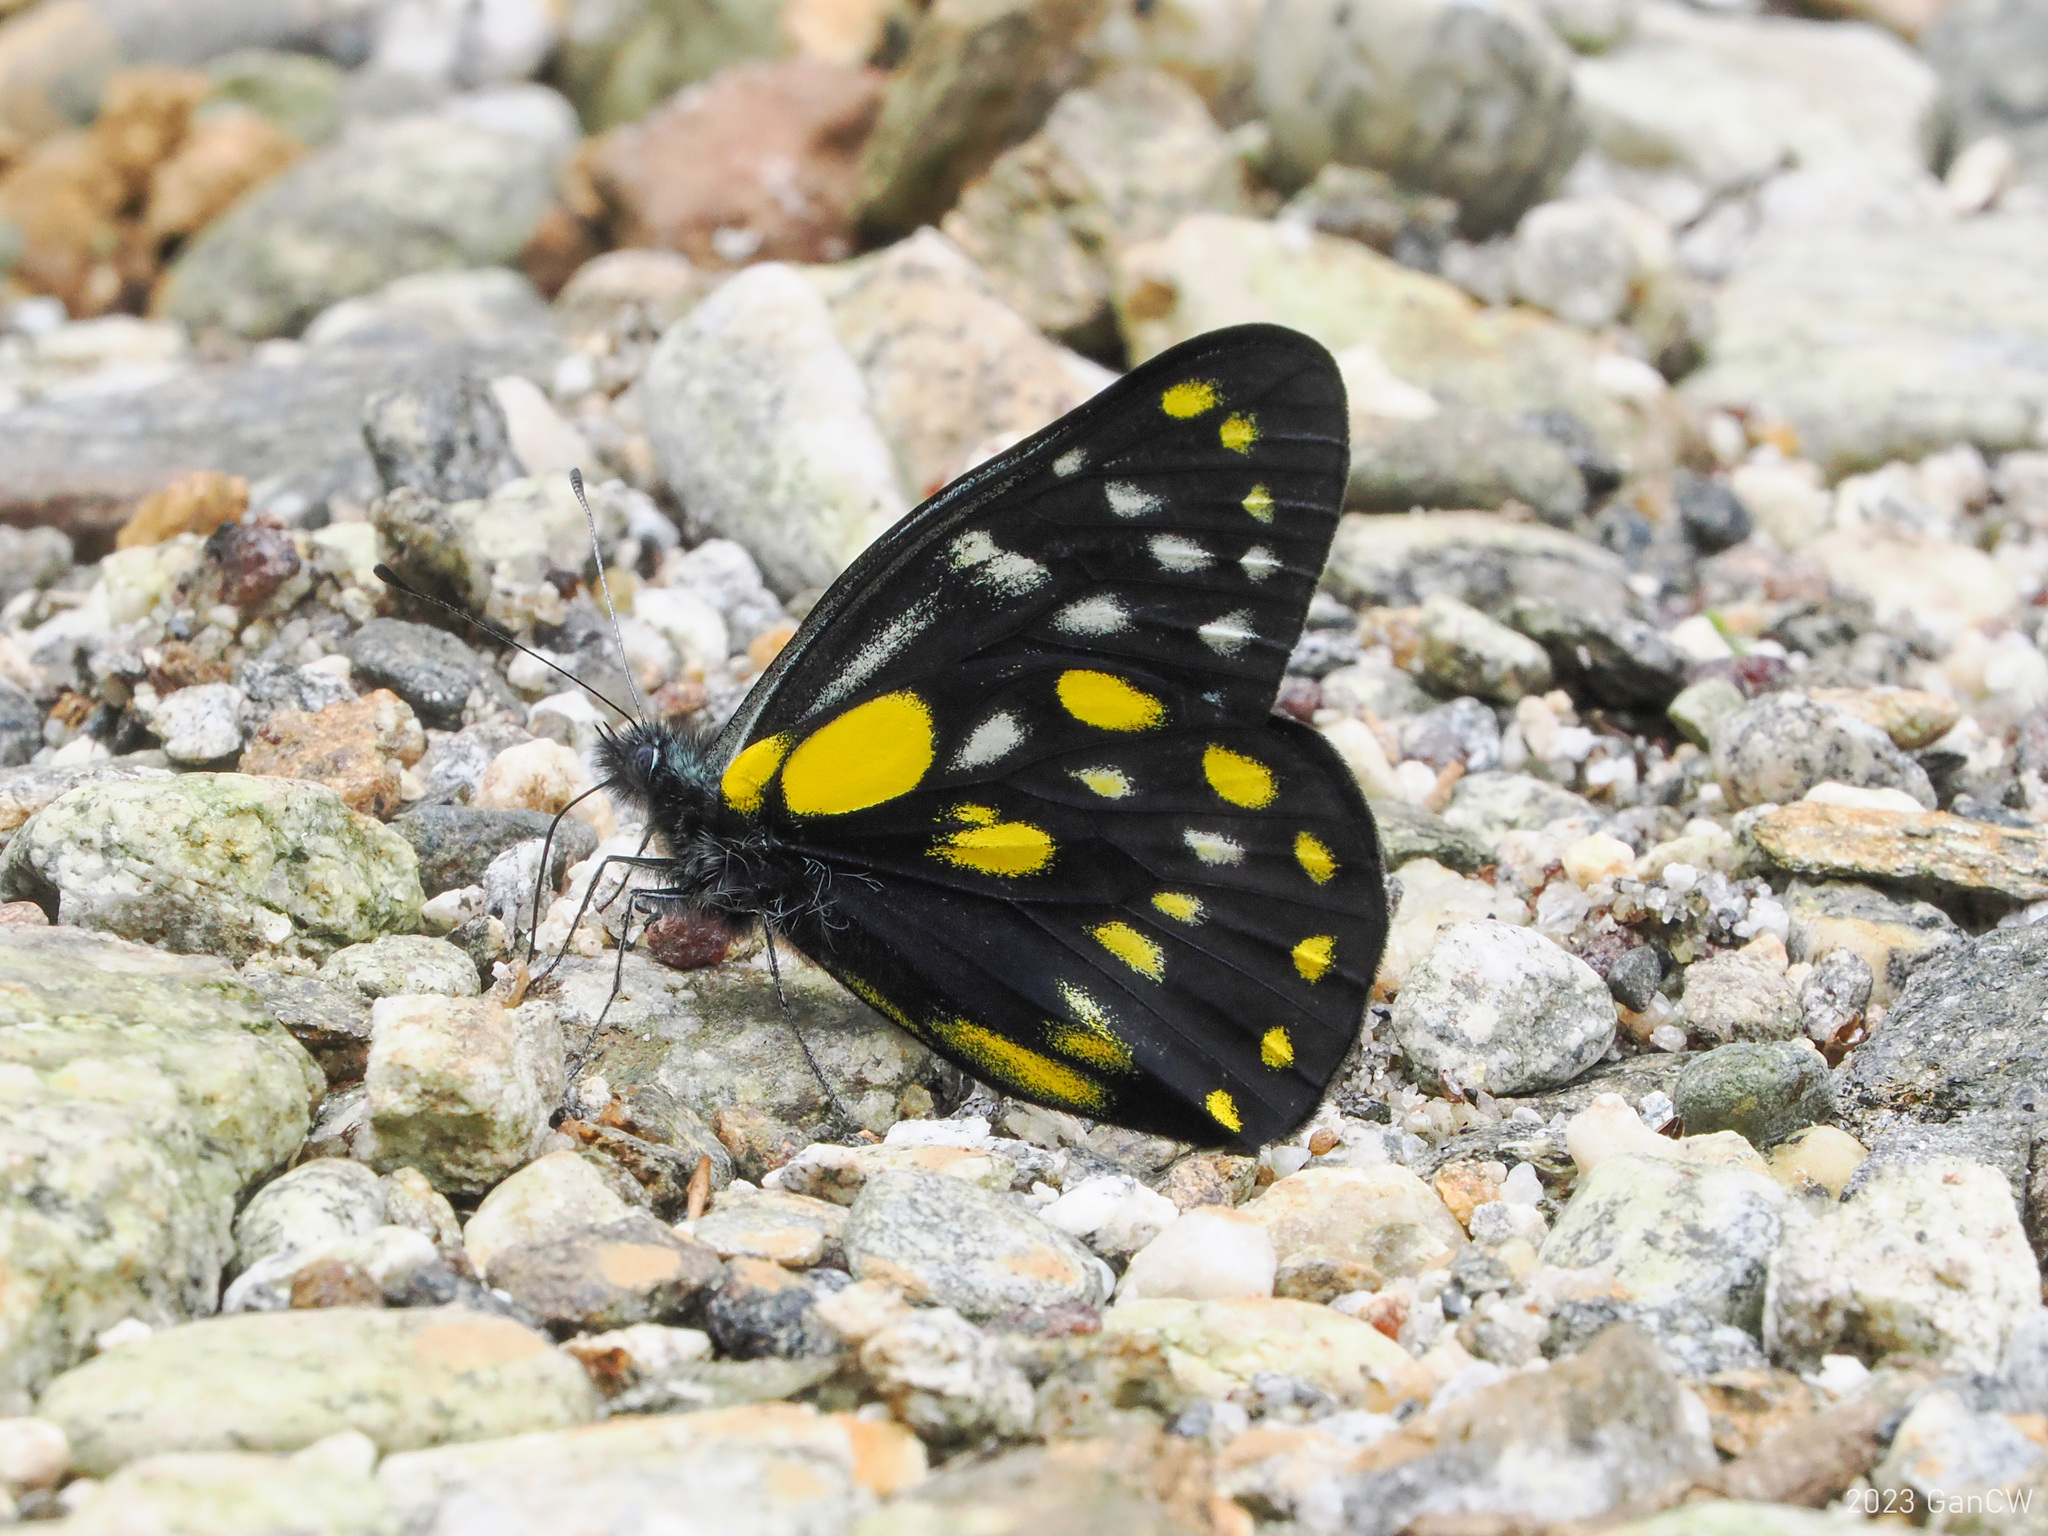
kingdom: Animalia
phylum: Arthropoda
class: Insecta
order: Lepidoptera
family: Pieridae
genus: Delias
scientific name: Delias belladonna
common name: Hill jezebel
